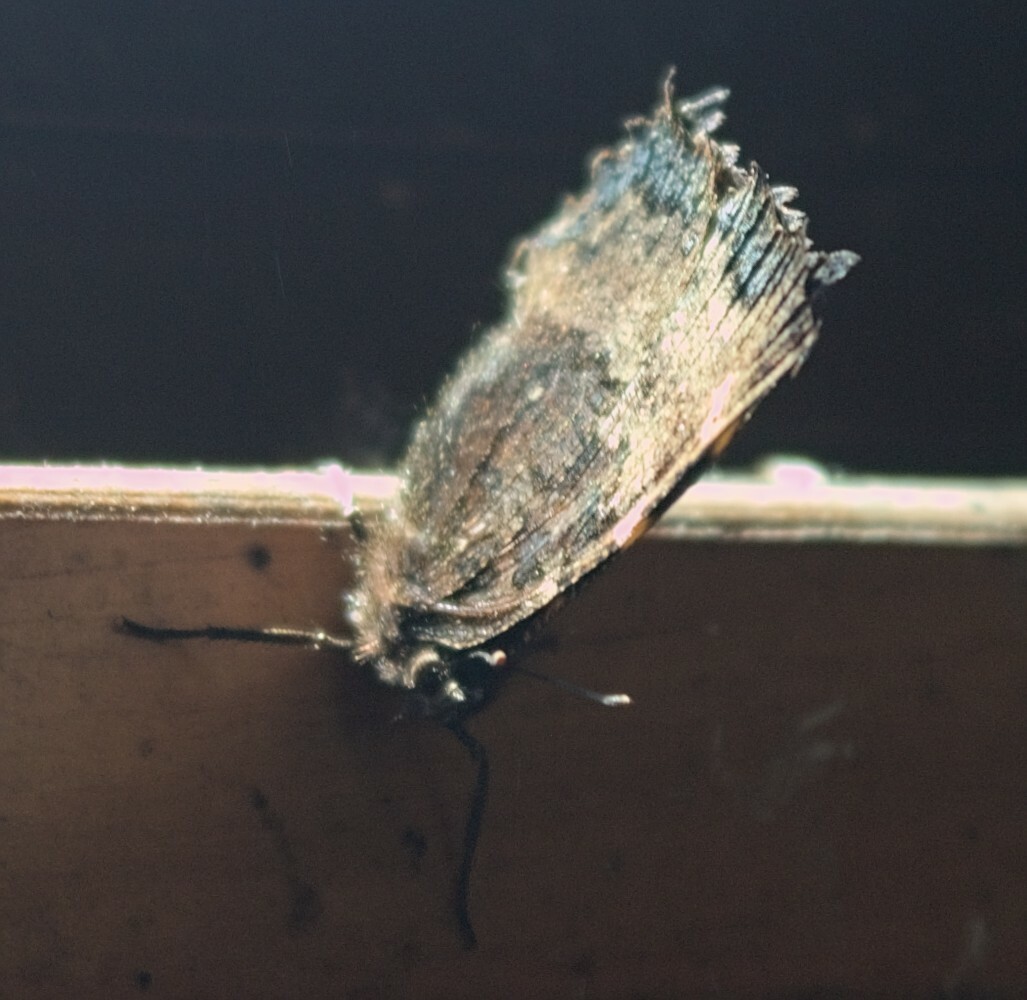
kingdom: Animalia
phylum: Arthropoda
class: Insecta
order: Lepidoptera
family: Nymphalidae
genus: Nymphalis
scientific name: Nymphalis polychloros
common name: Large tortoiseshell
